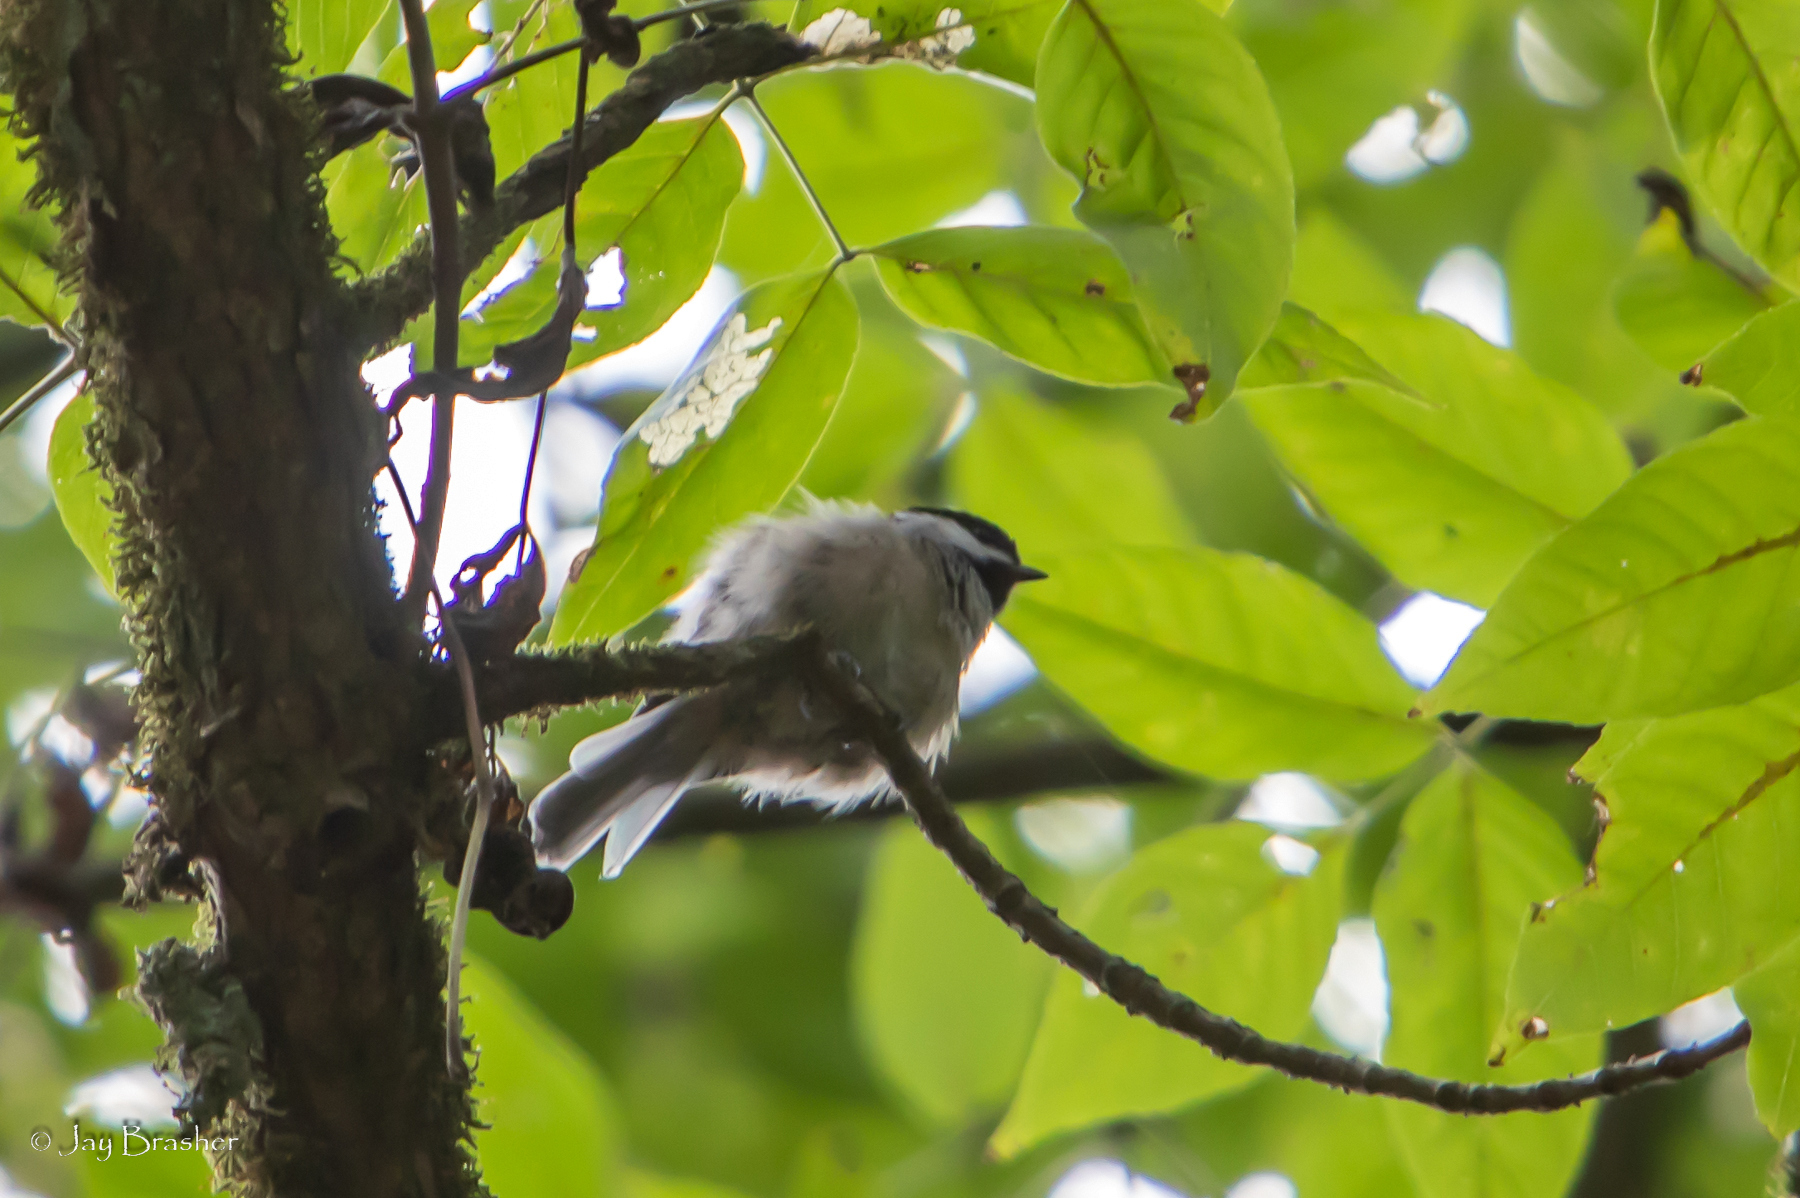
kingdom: Animalia
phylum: Chordata
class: Aves
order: Passeriformes
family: Paridae
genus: Poecile
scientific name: Poecile carolinensis
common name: Carolina chickadee
